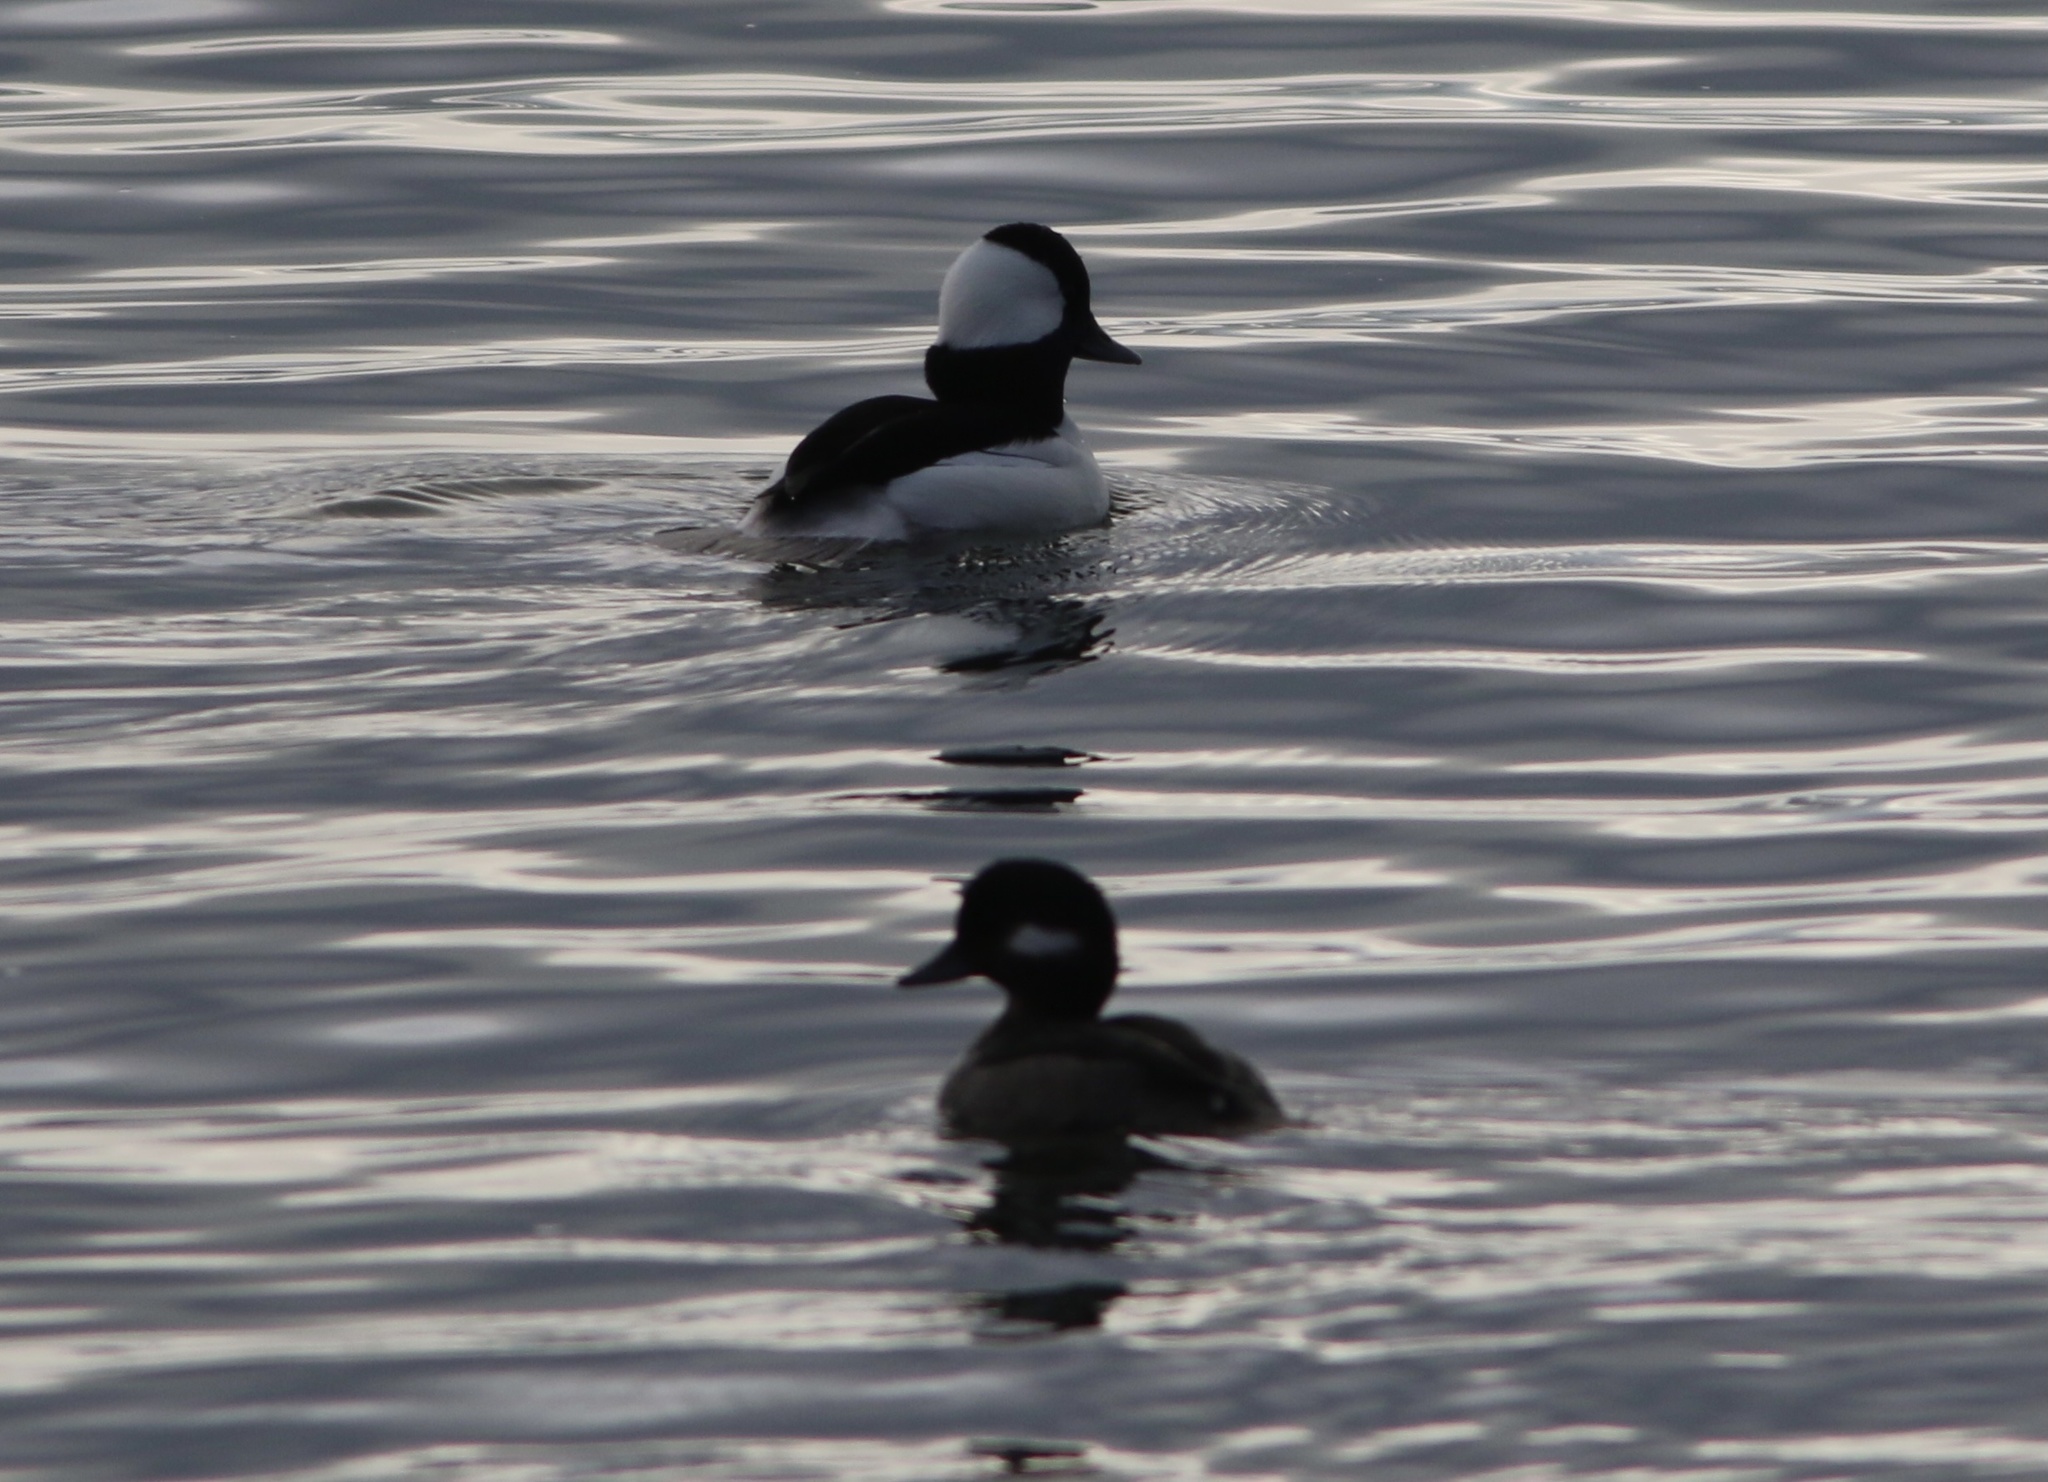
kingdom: Animalia
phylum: Chordata
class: Aves
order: Anseriformes
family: Anatidae
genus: Bucephala
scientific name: Bucephala albeola
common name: Bufflehead
